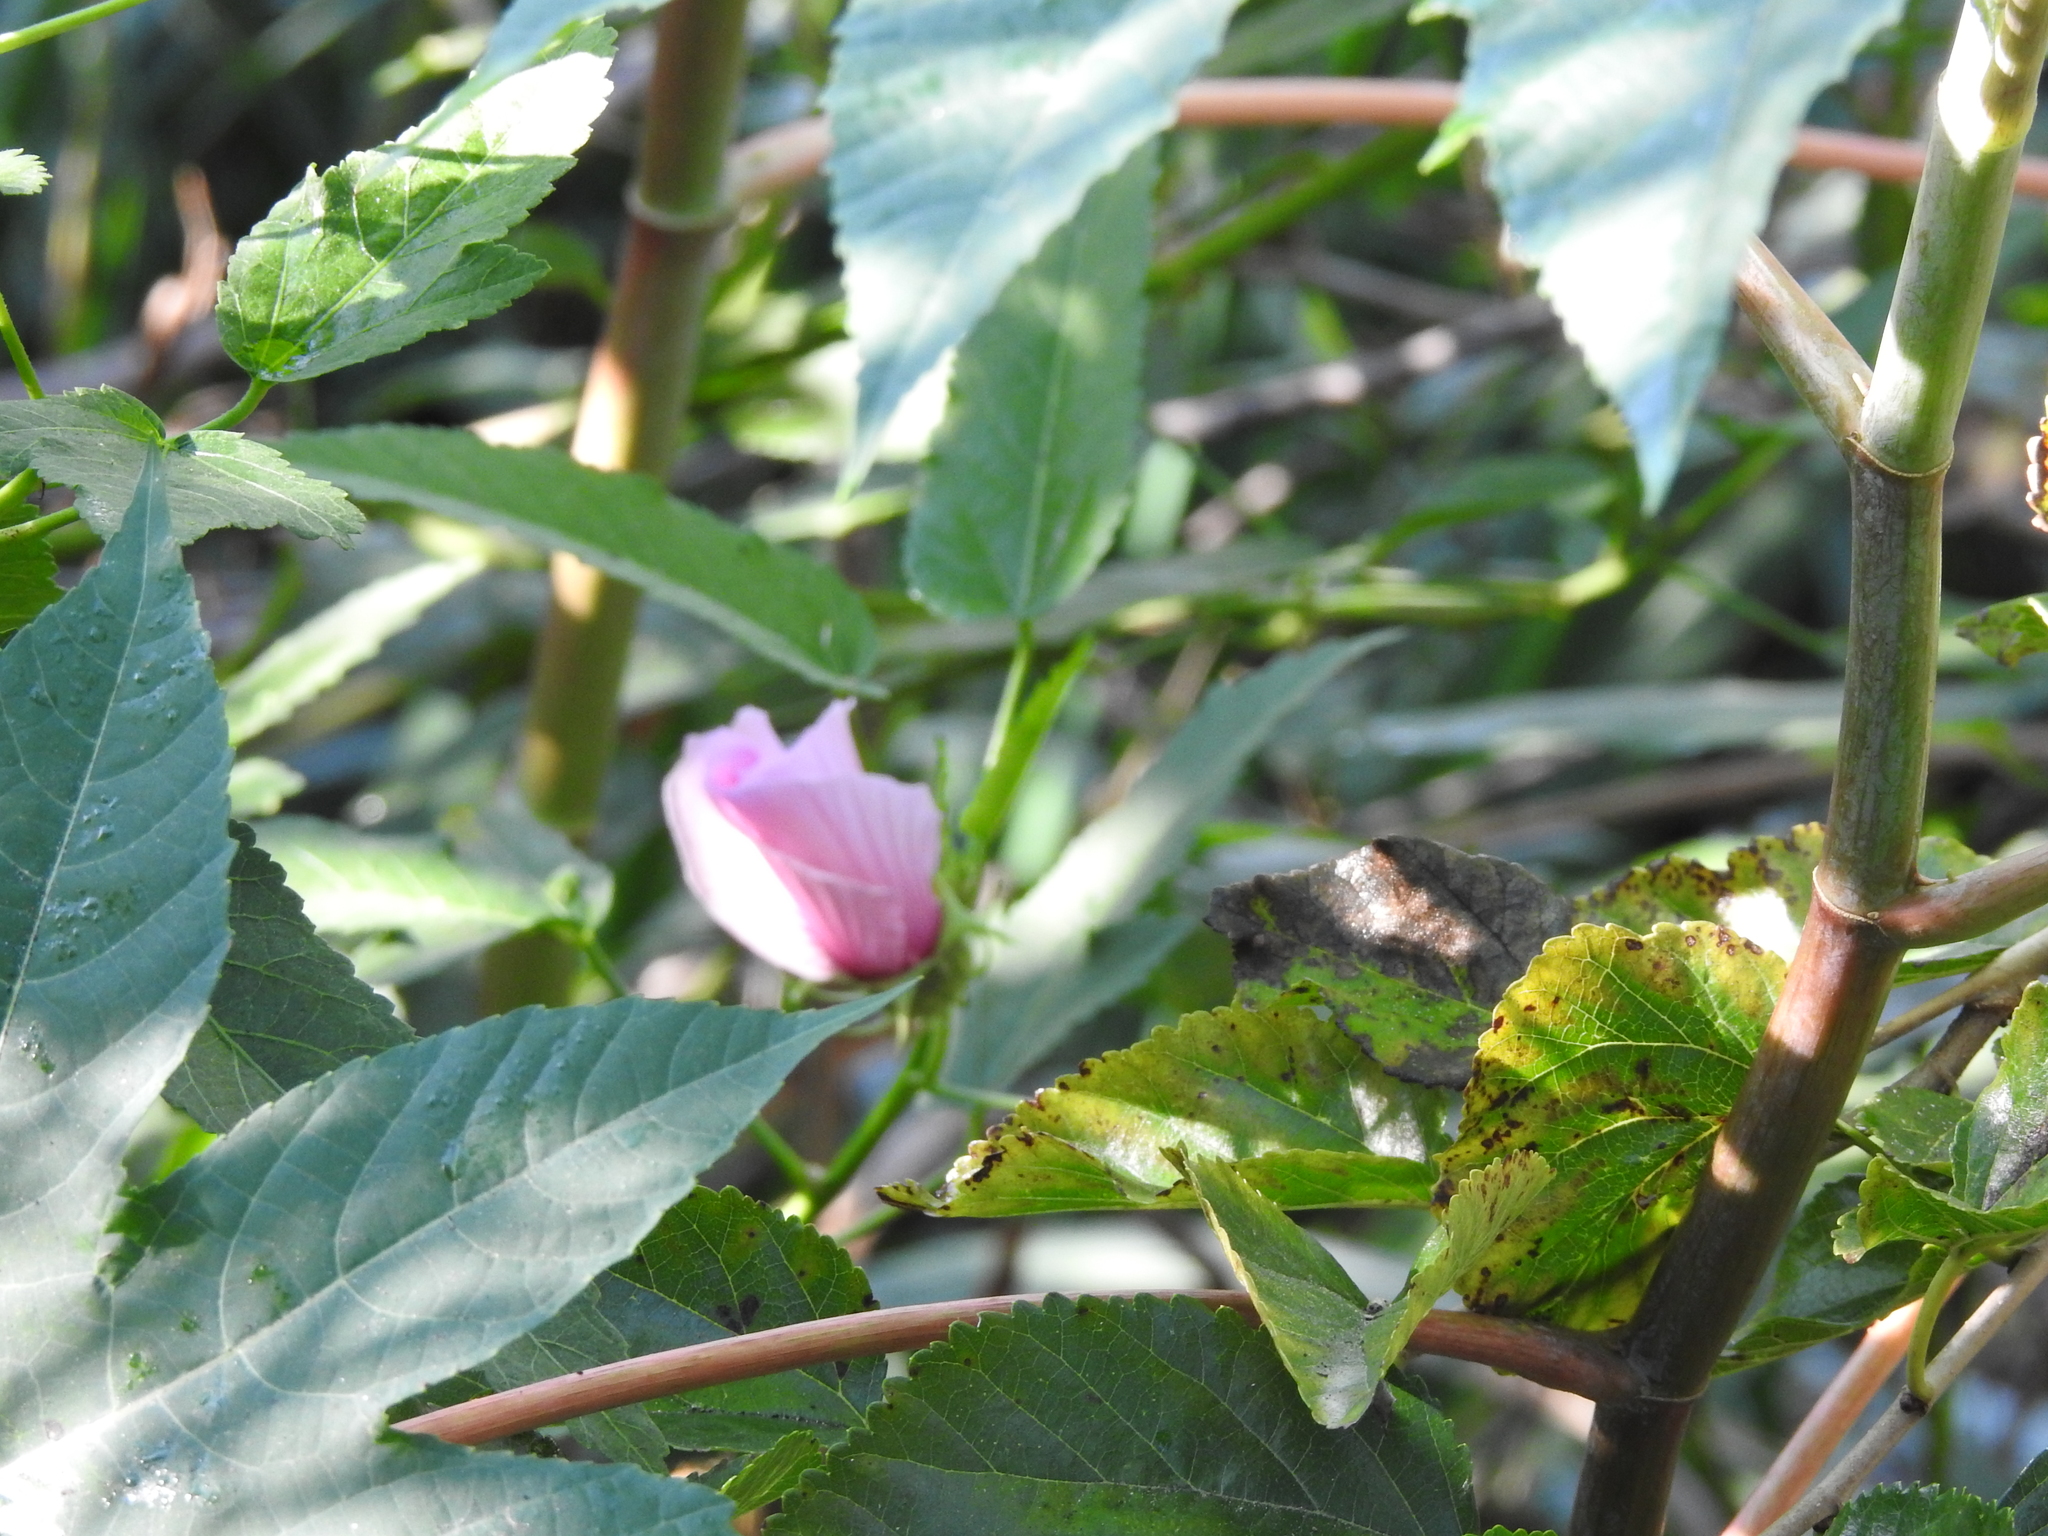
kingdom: Plantae
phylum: Tracheophyta
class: Magnoliopsida
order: Malvales
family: Malvaceae
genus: Hibiscus
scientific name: Hibiscus striatus
